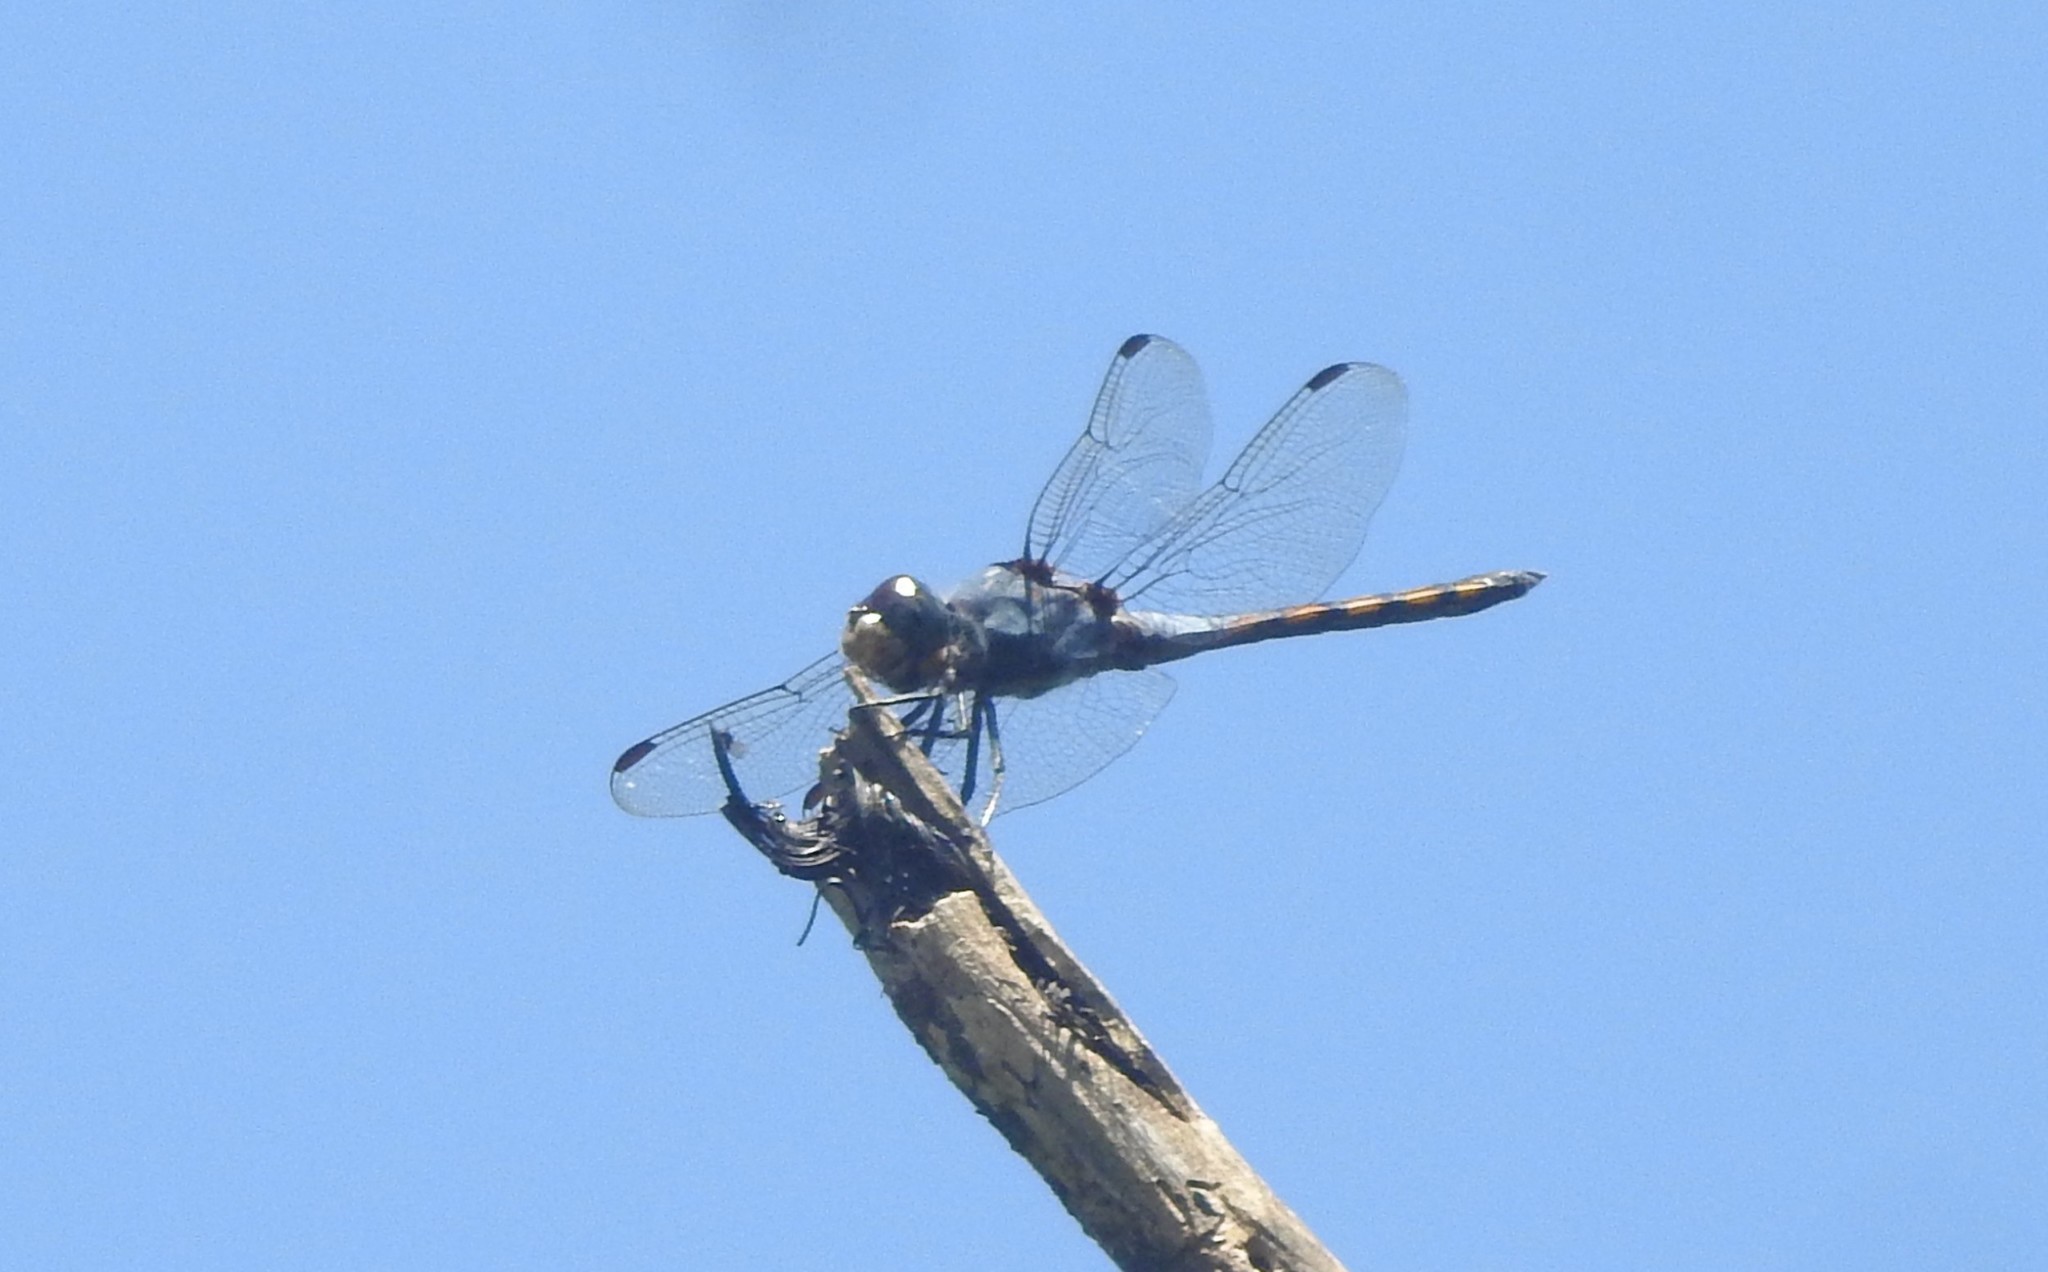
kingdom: Animalia
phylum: Arthropoda
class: Insecta
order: Odonata
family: Libellulidae
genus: Potamarcha
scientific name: Potamarcha congener
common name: Blue chaser
